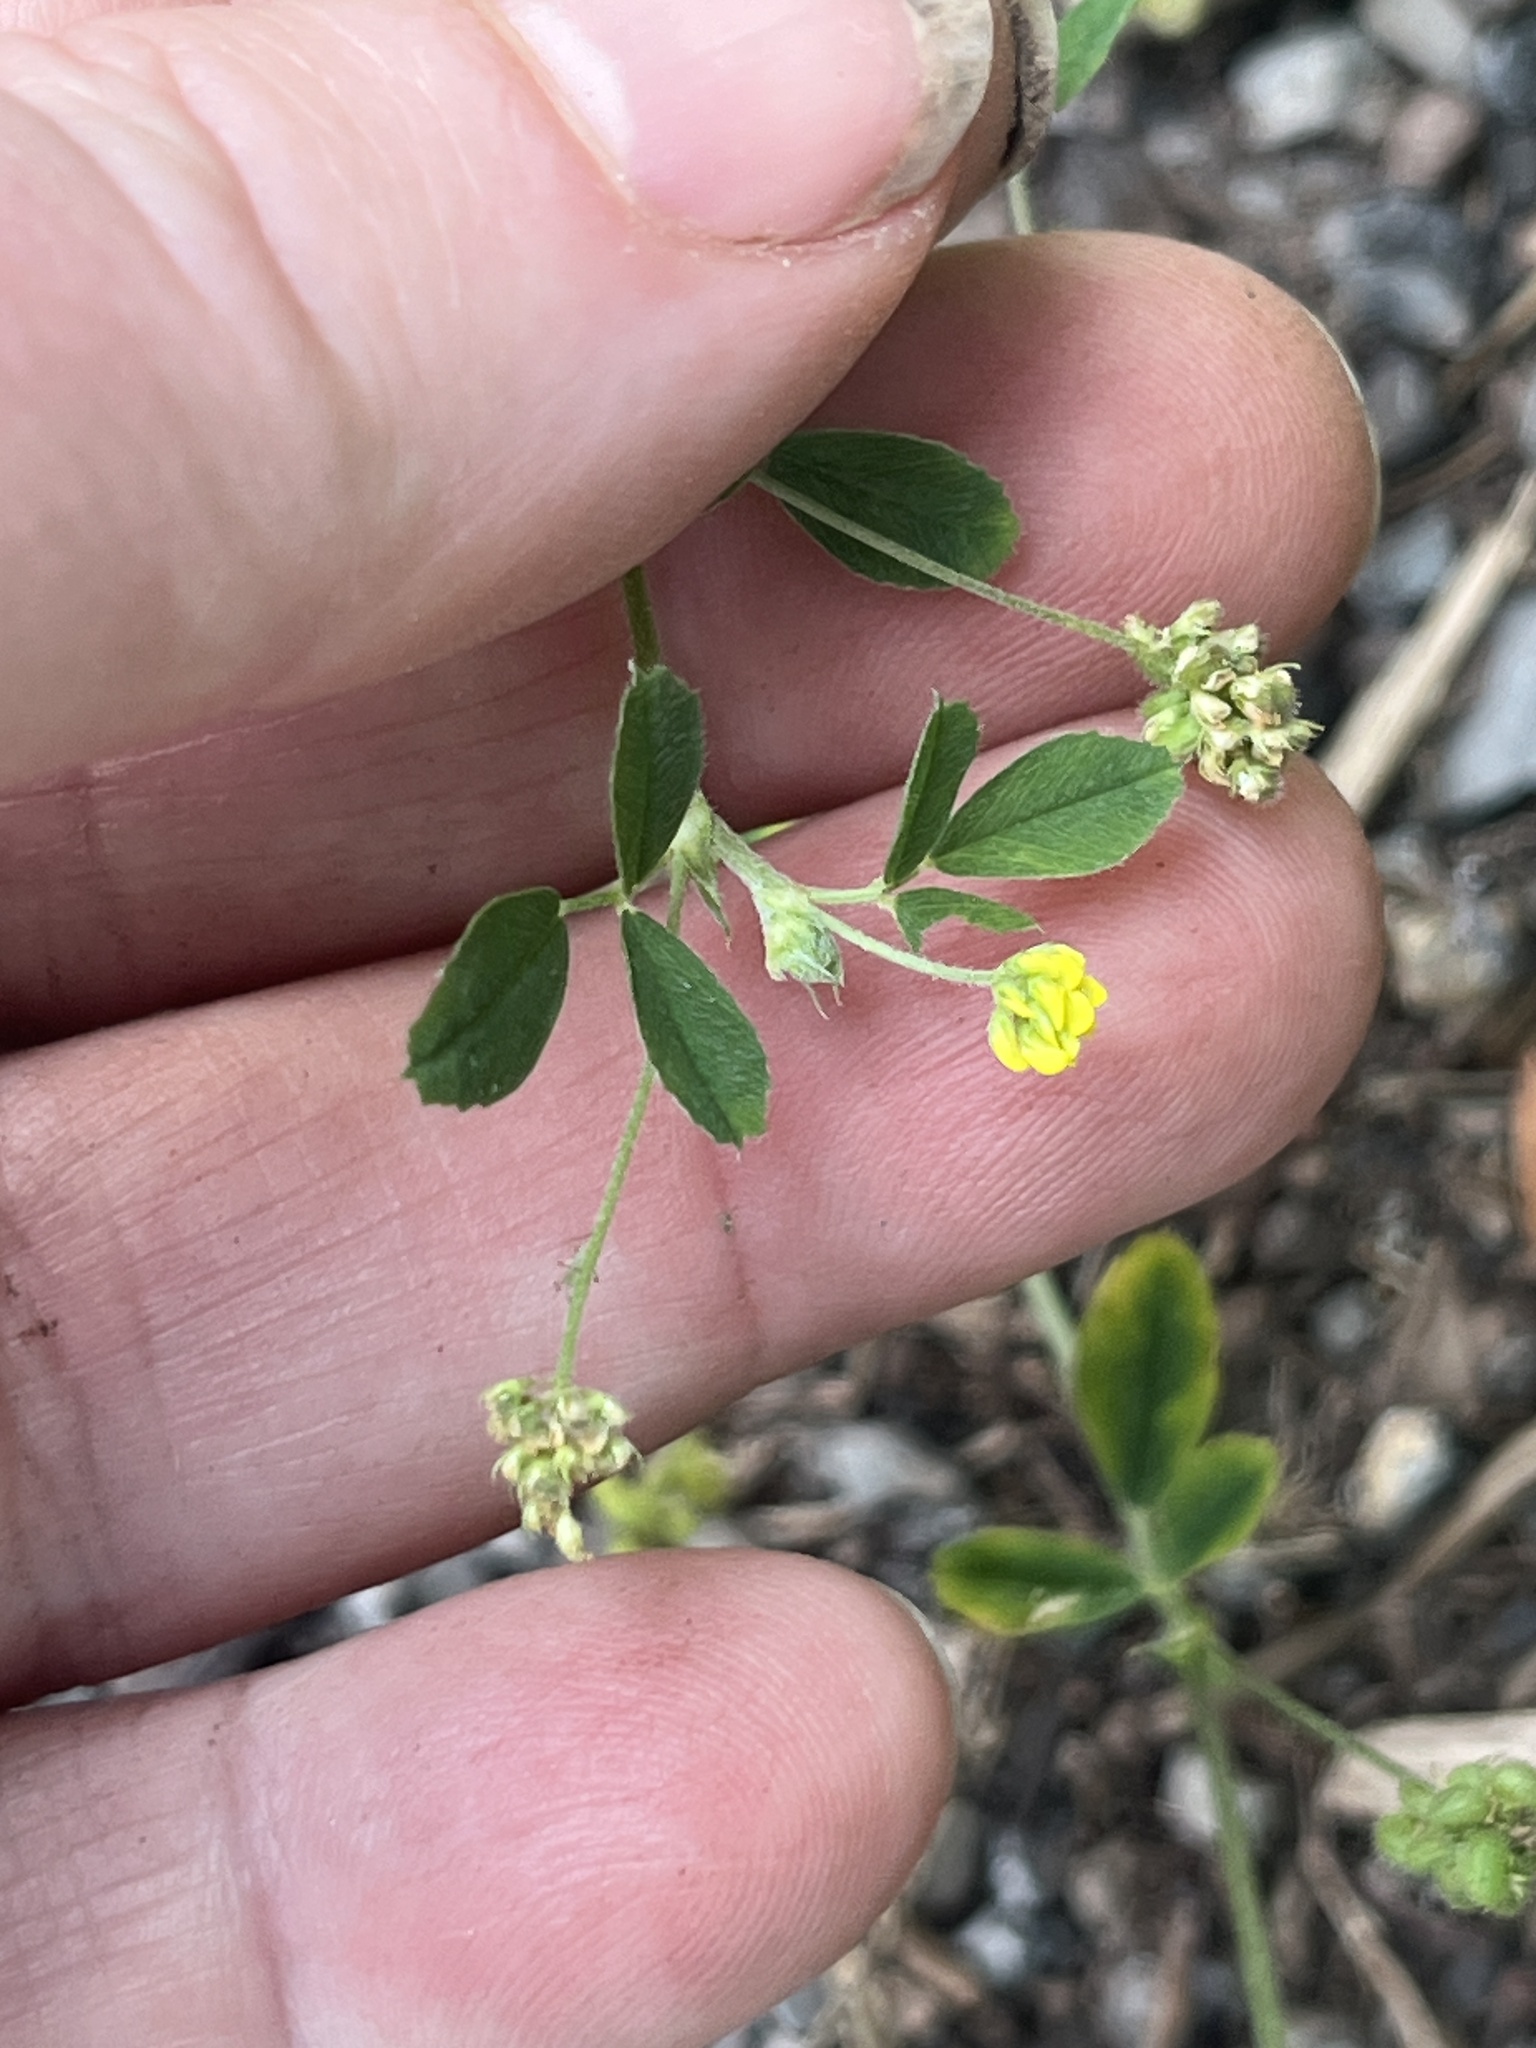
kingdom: Plantae
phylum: Tracheophyta
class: Magnoliopsida
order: Fabales
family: Fabaceae
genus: Medicago
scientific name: Medicago lupulina
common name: Black medick
